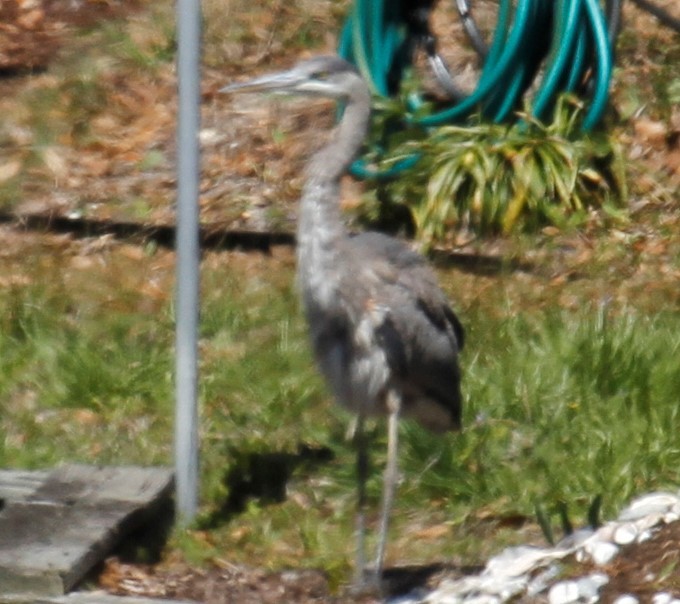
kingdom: Animalia
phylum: Chordata
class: Aves
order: Pelecaniformes
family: Ardeidae
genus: Ardea
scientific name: Ardea herodias
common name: Great blue heron
